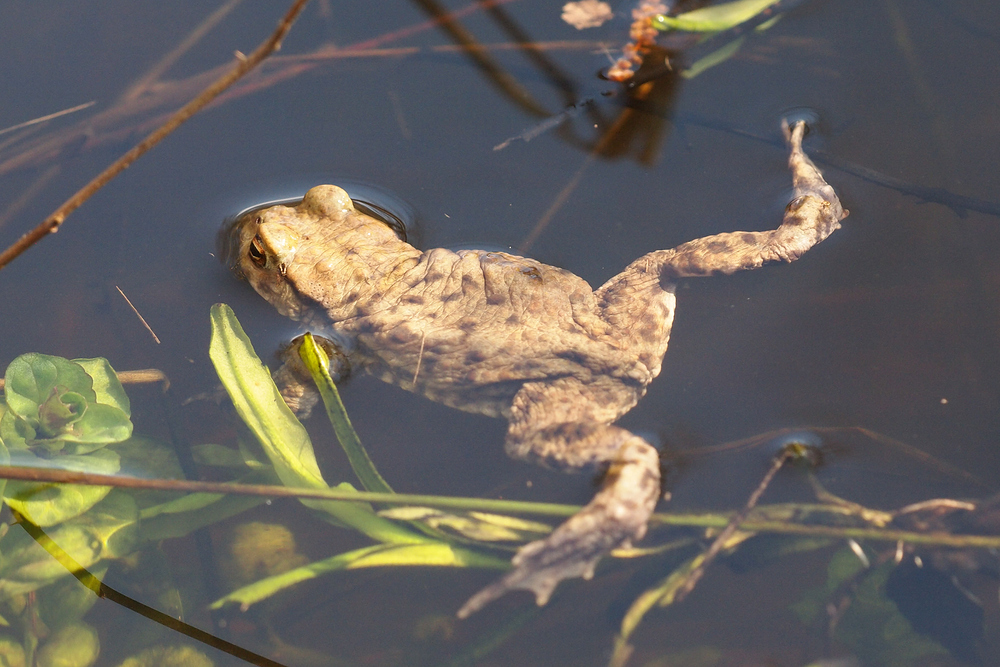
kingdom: Animalia
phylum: Chordata
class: Amphibia
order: Anura
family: Bufonidae
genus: Bufo
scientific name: Bufo bufo
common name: Common toad
